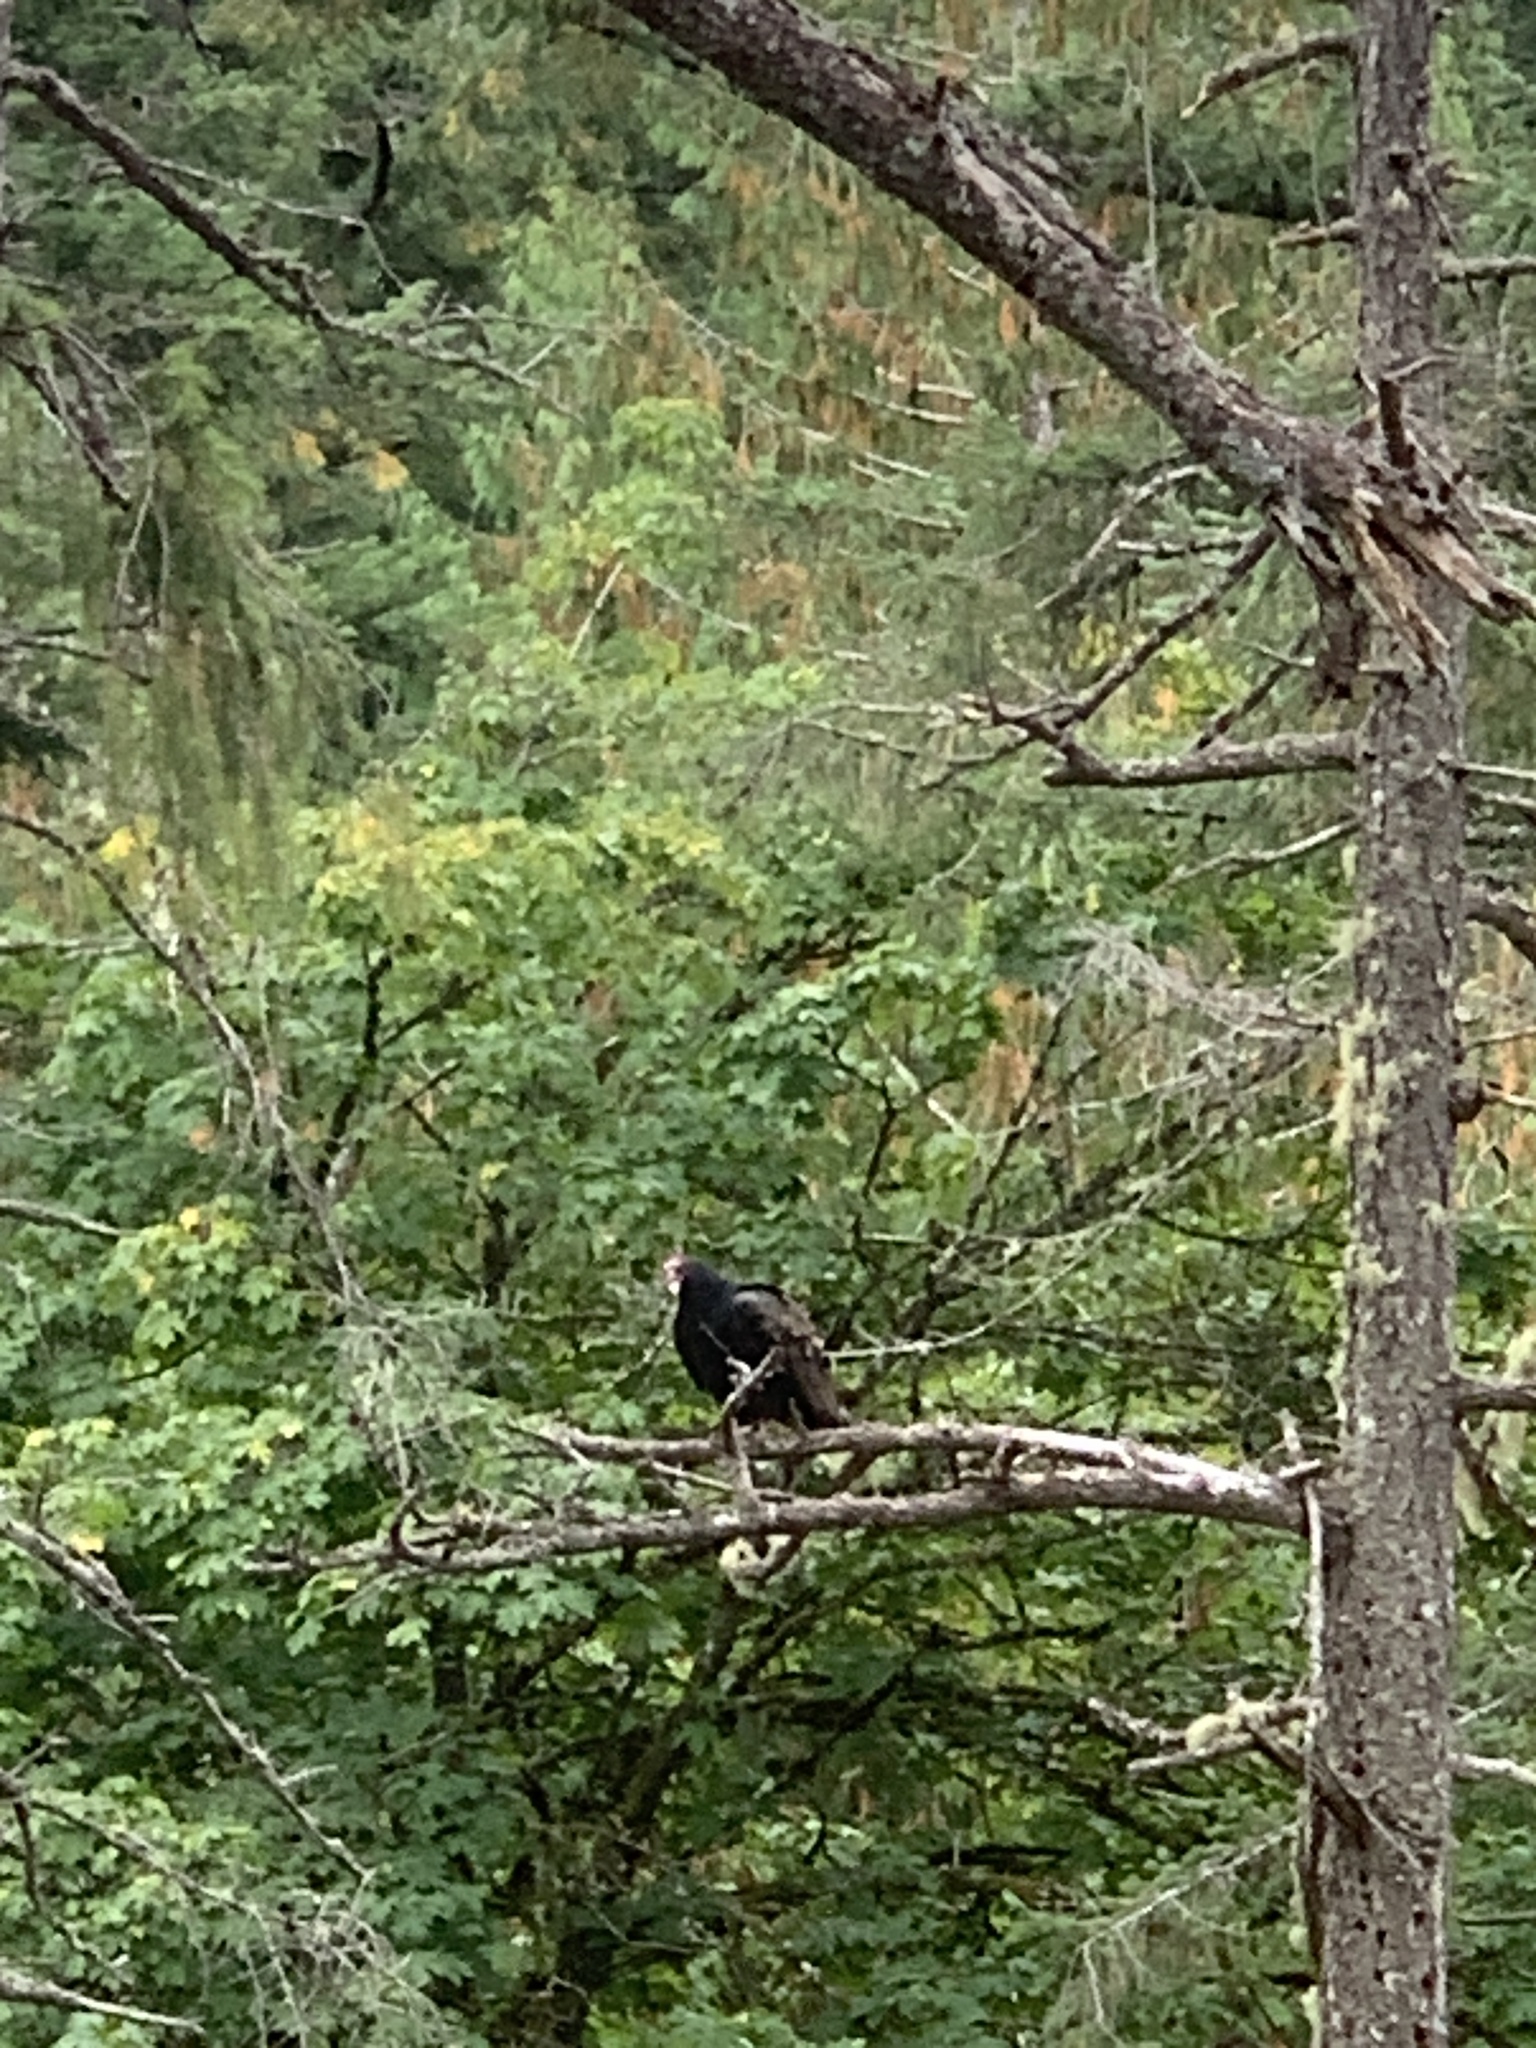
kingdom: Animalia
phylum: Chordata
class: Aves
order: Accipitriformes
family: Cathartidae
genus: Cathartes
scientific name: Cathartes aura
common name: Turkey vulture
